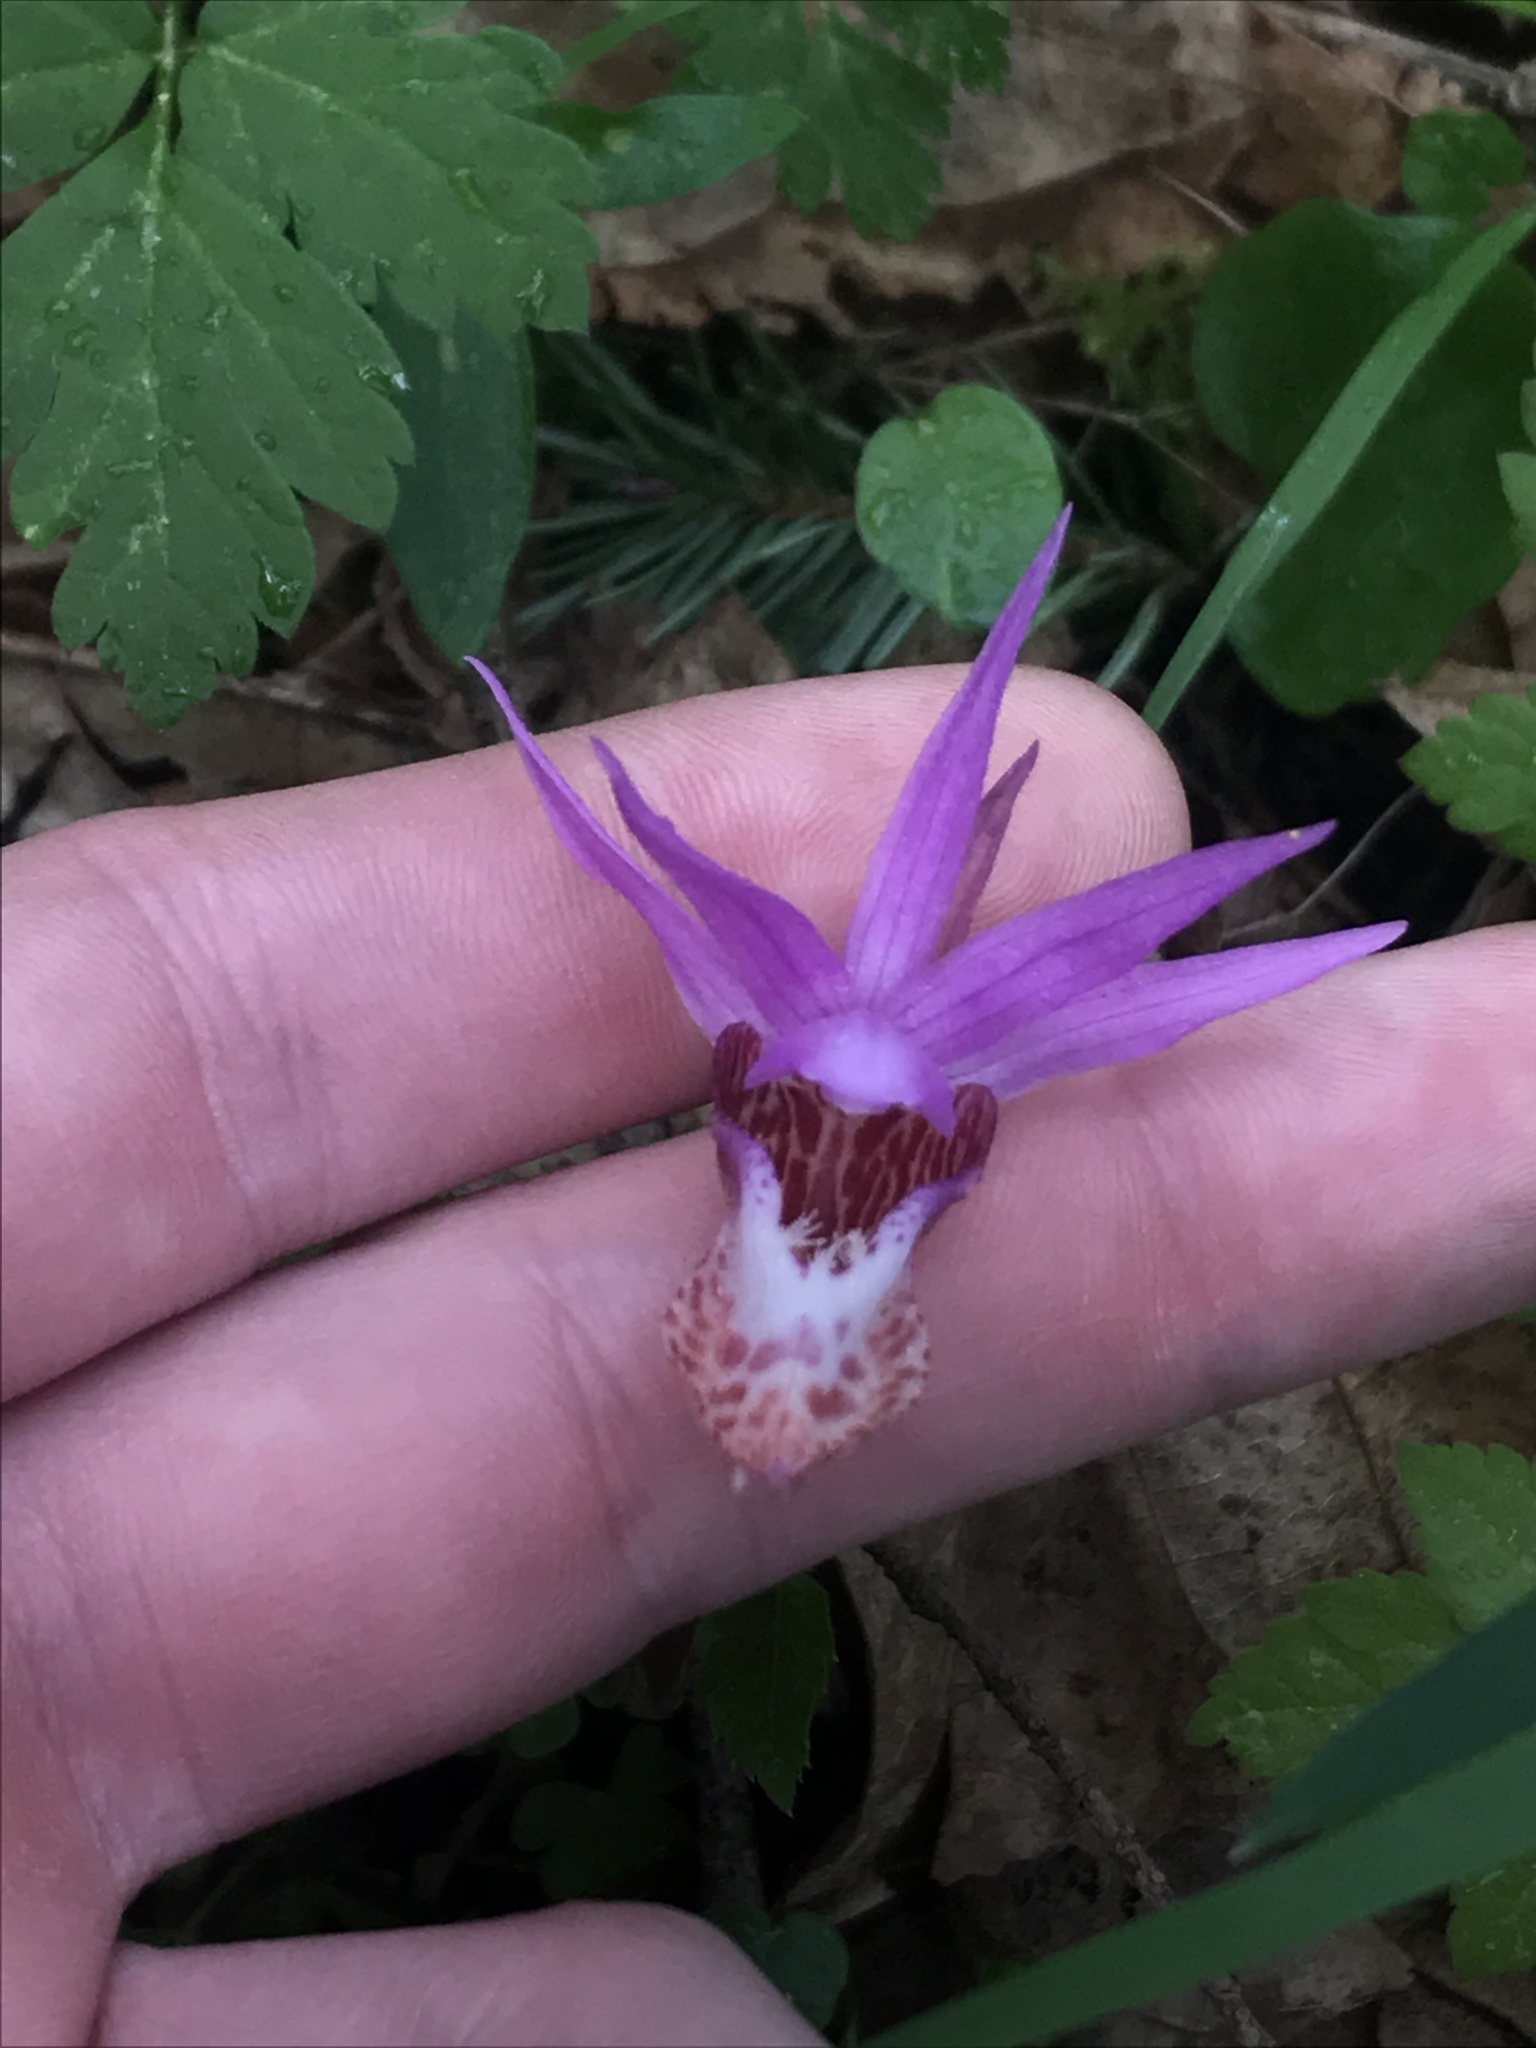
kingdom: Plantae
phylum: Tracheophyta
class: Liliopsida
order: Asparagales
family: Orchidaceae
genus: Calypso
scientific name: Calypso bulbosa
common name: Calypso
